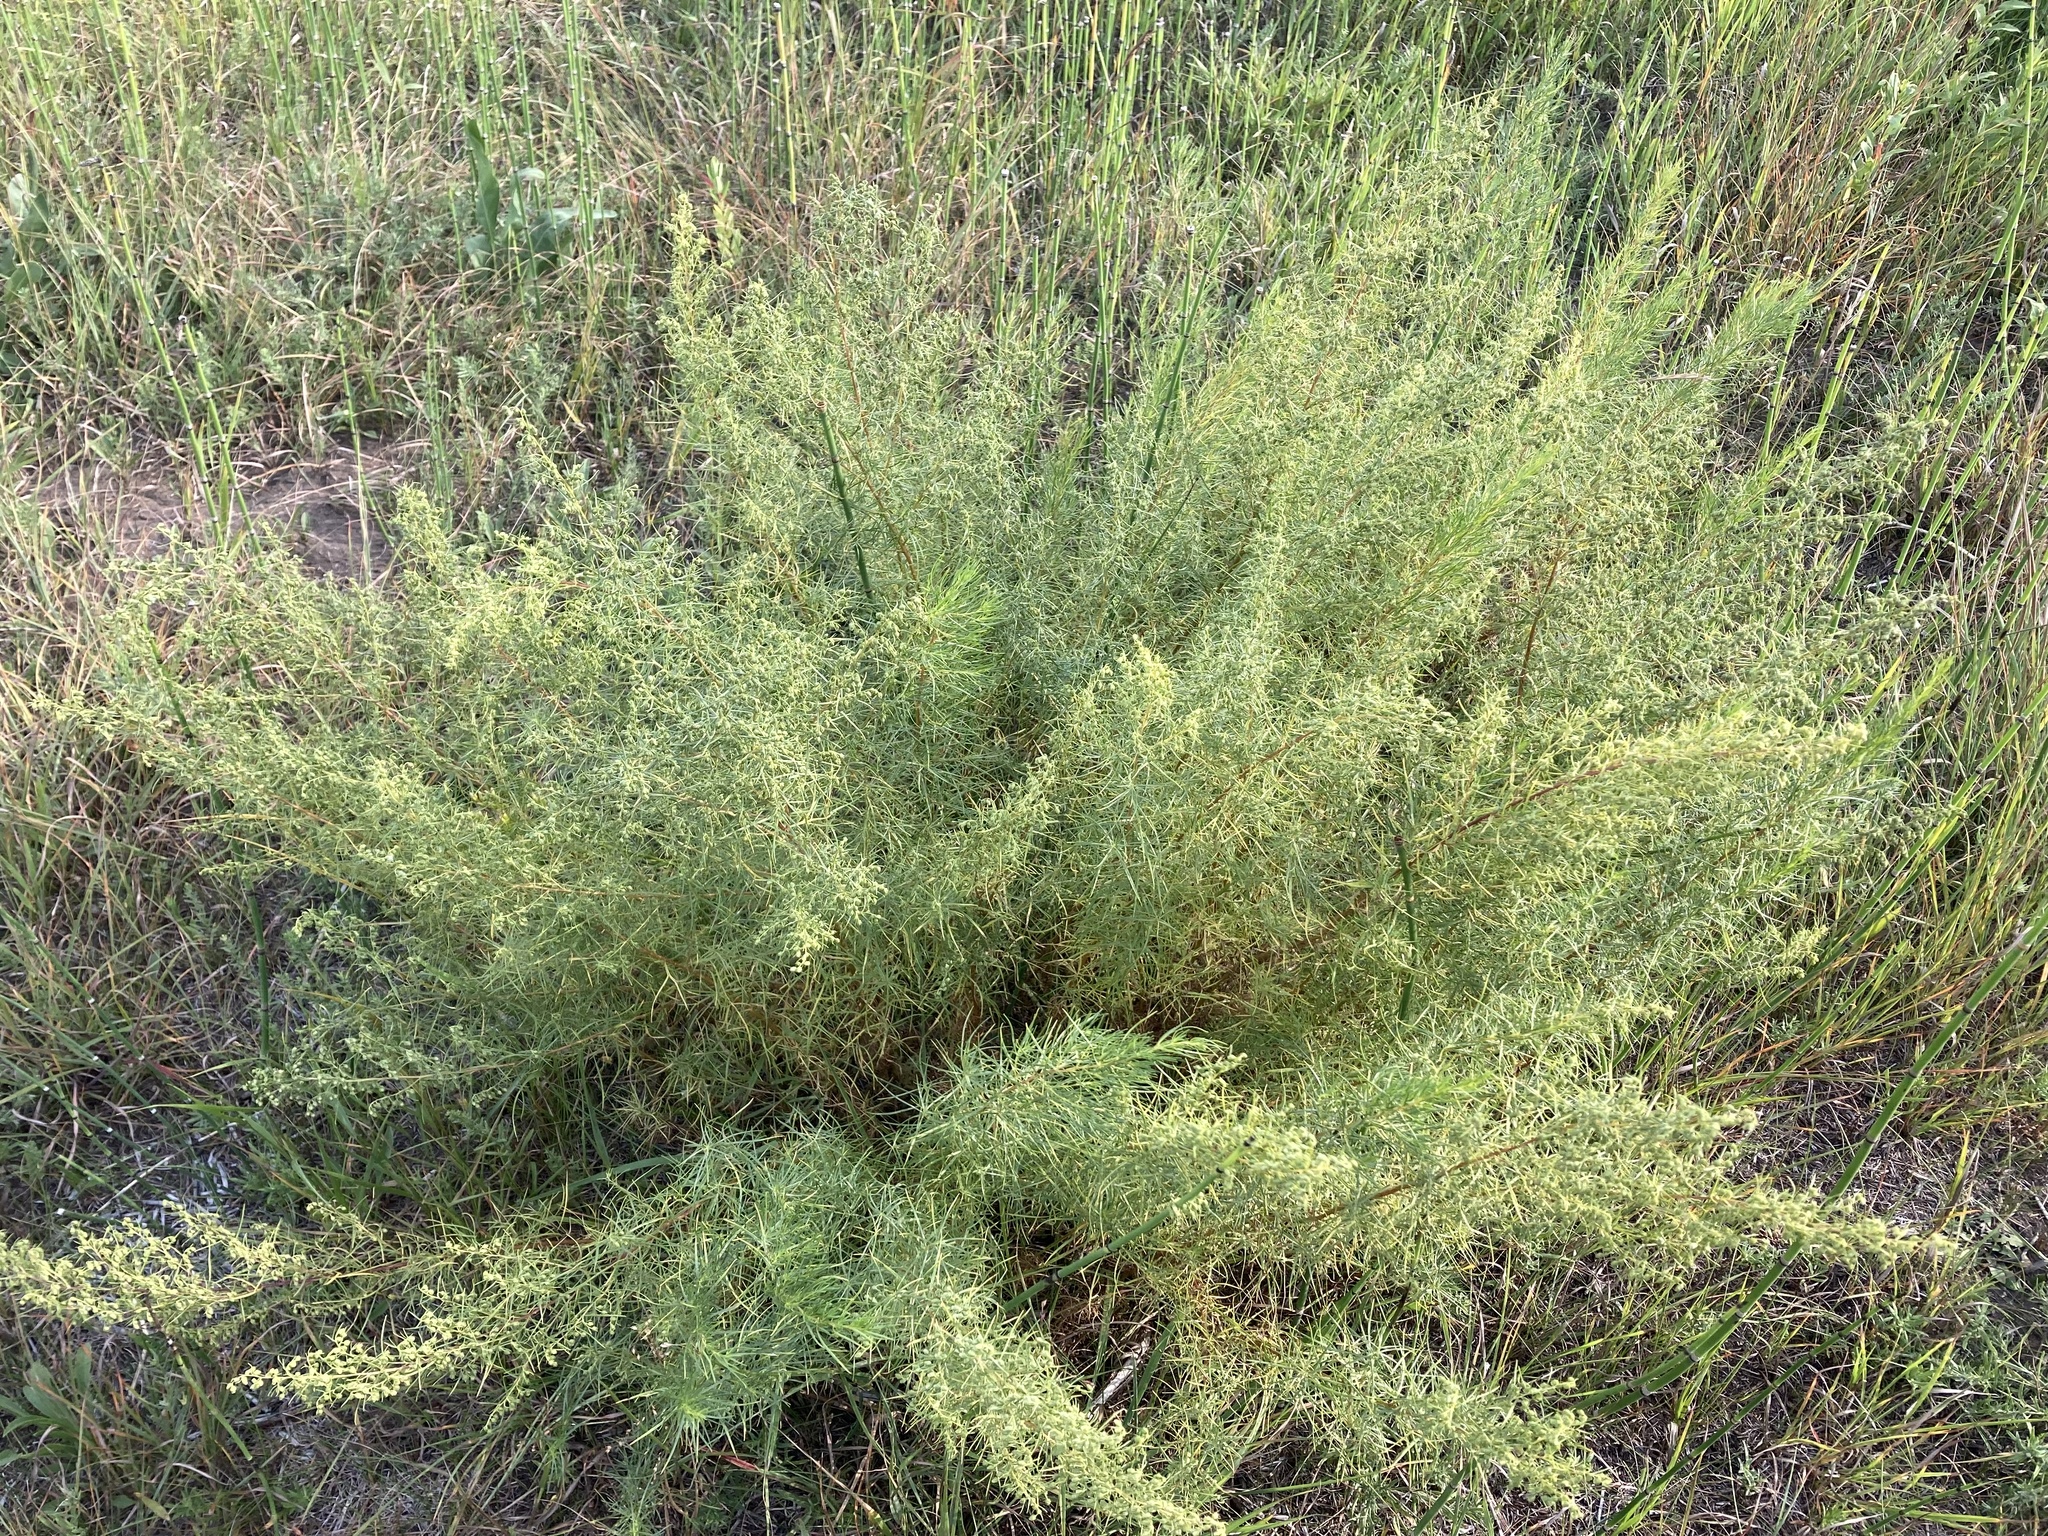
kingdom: Plantae
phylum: Tracheophyta
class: Magnoliopsida
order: Asterales
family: Asteraceae
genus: Artemisia
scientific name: Artemisia dracunculus
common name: Tarragon
